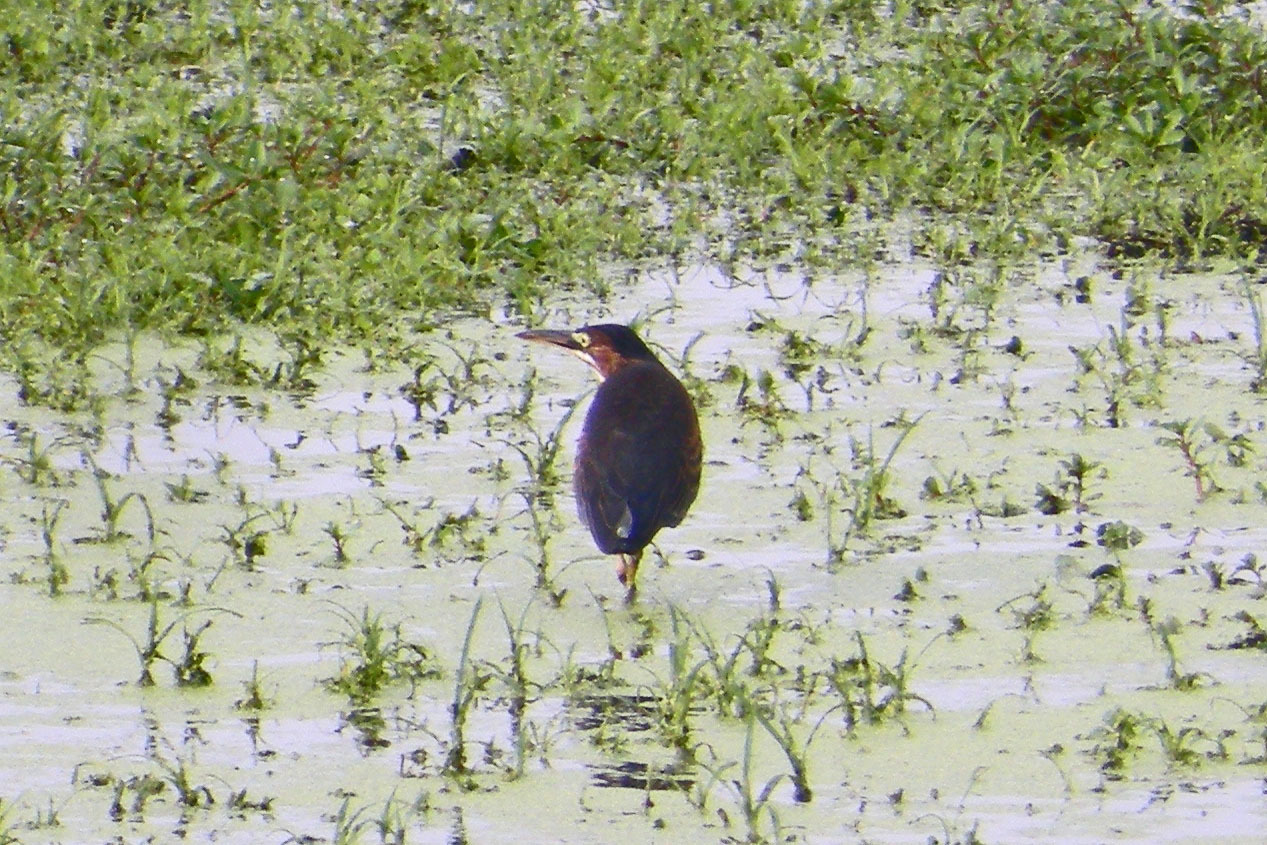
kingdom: Animalia
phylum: Chordata
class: Aves
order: Pelecaniformes
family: Ardeidae
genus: Butorides
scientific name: Butorides virescens
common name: Green heron
